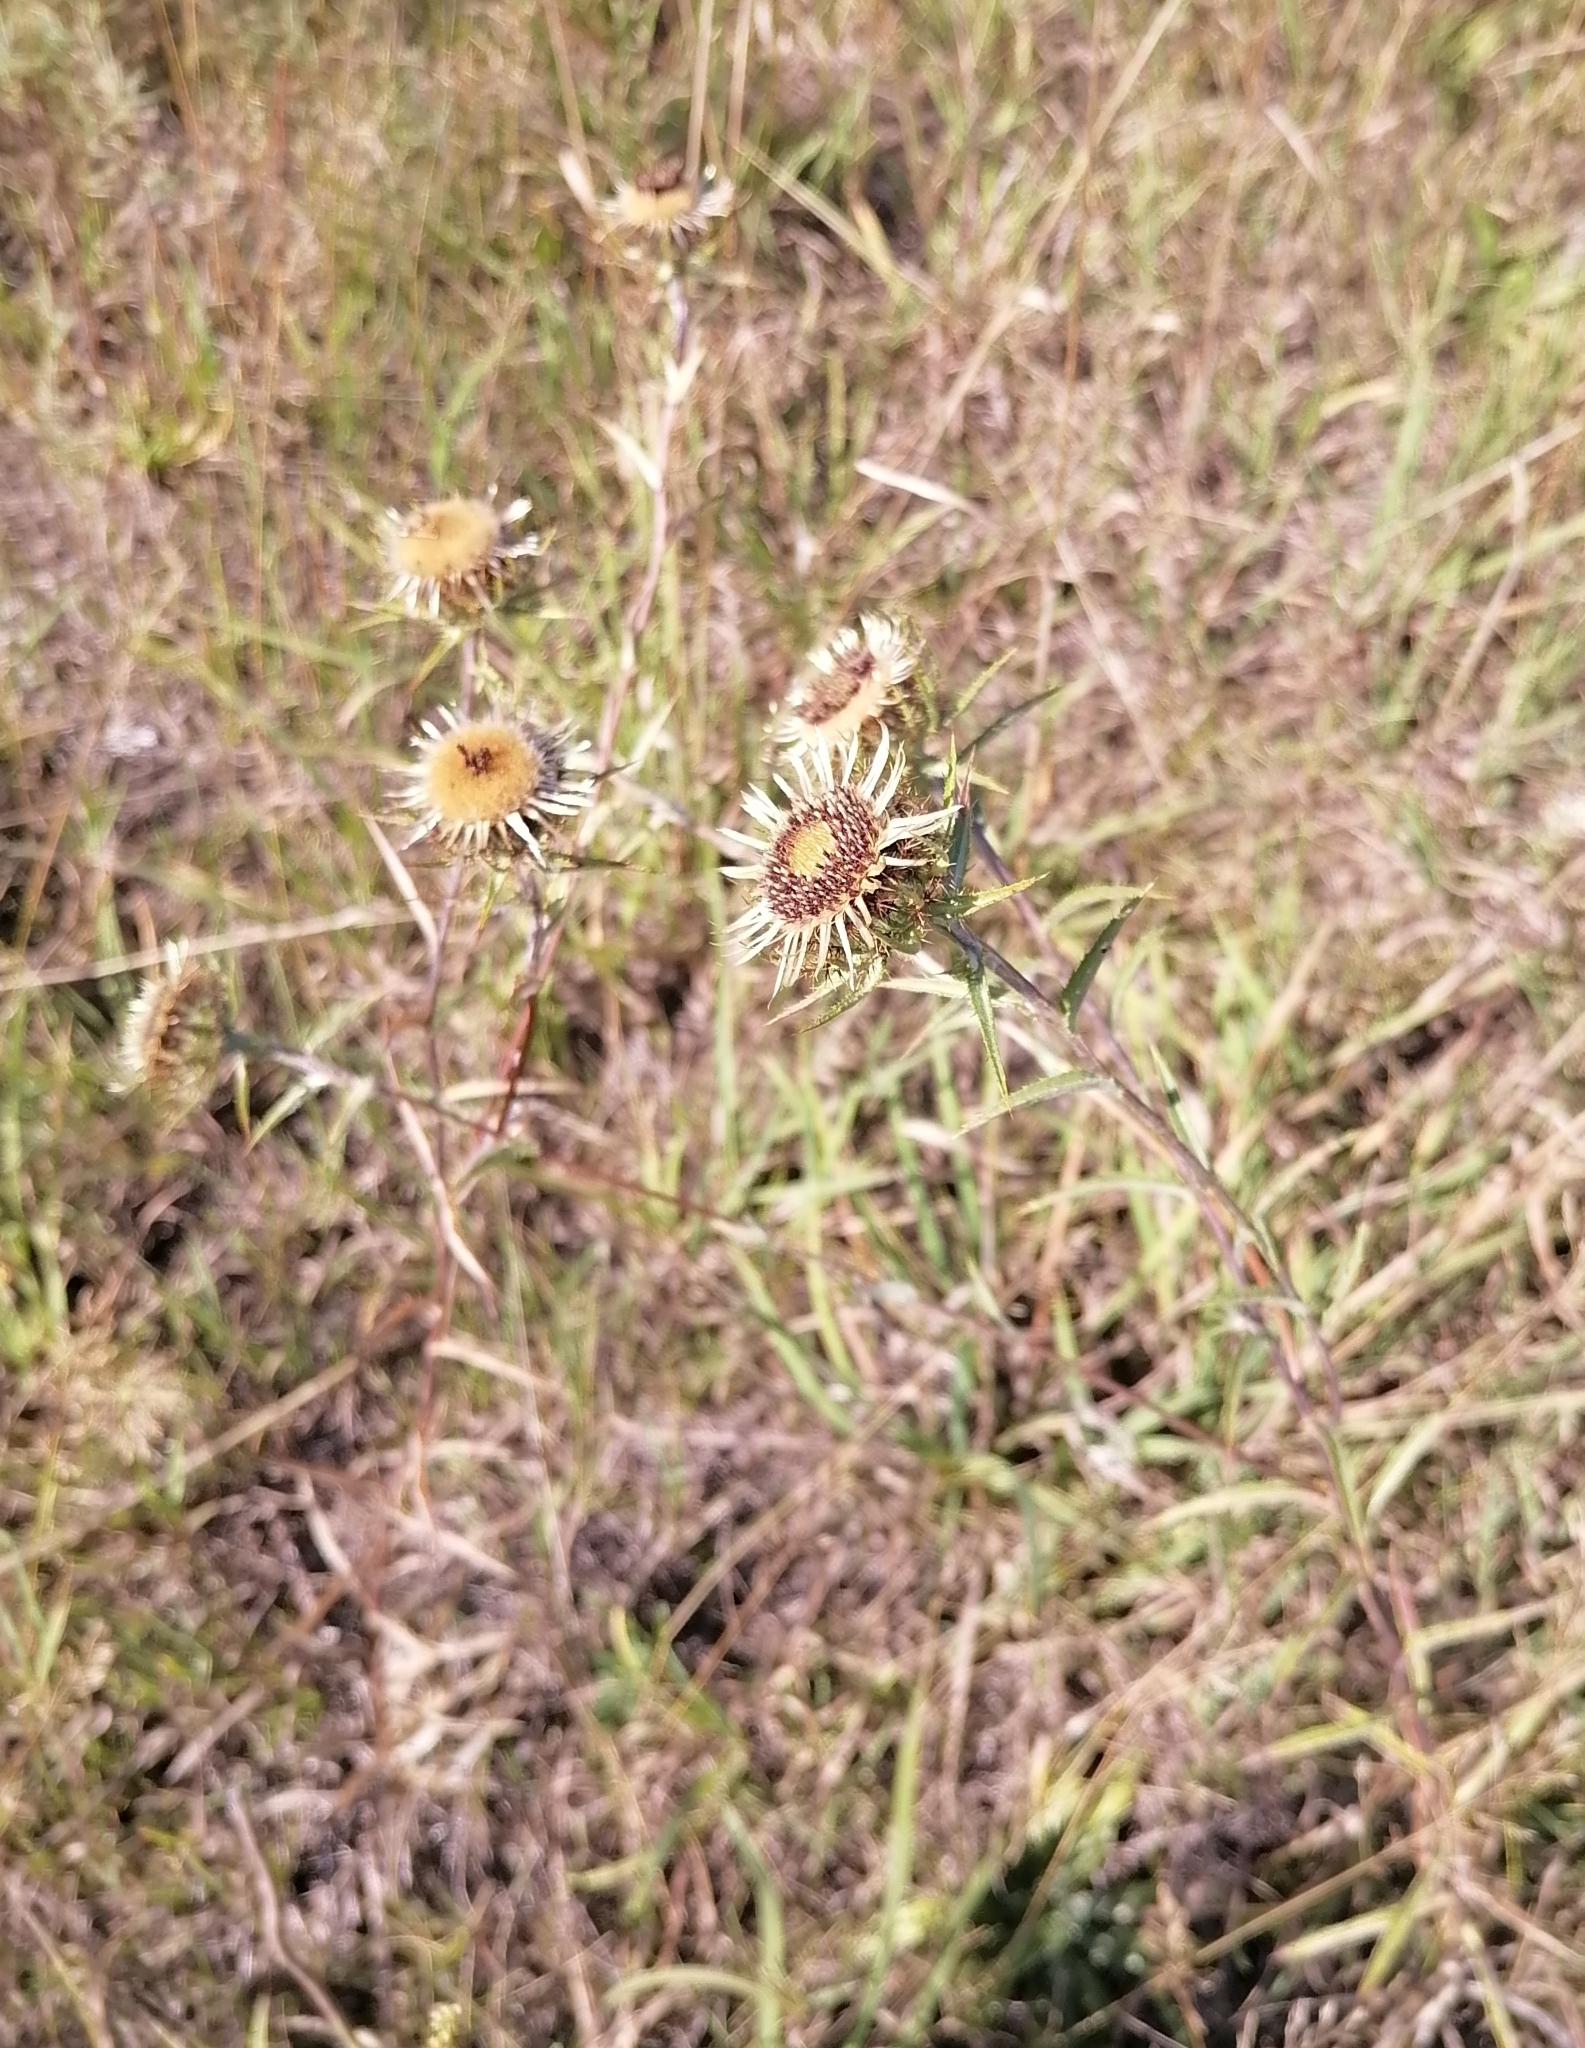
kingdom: Plantae
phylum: Tracheophyta
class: Magnoliopsida
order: Asterales
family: Asteraceae
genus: Carlina
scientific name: Carlina biebersteinii
